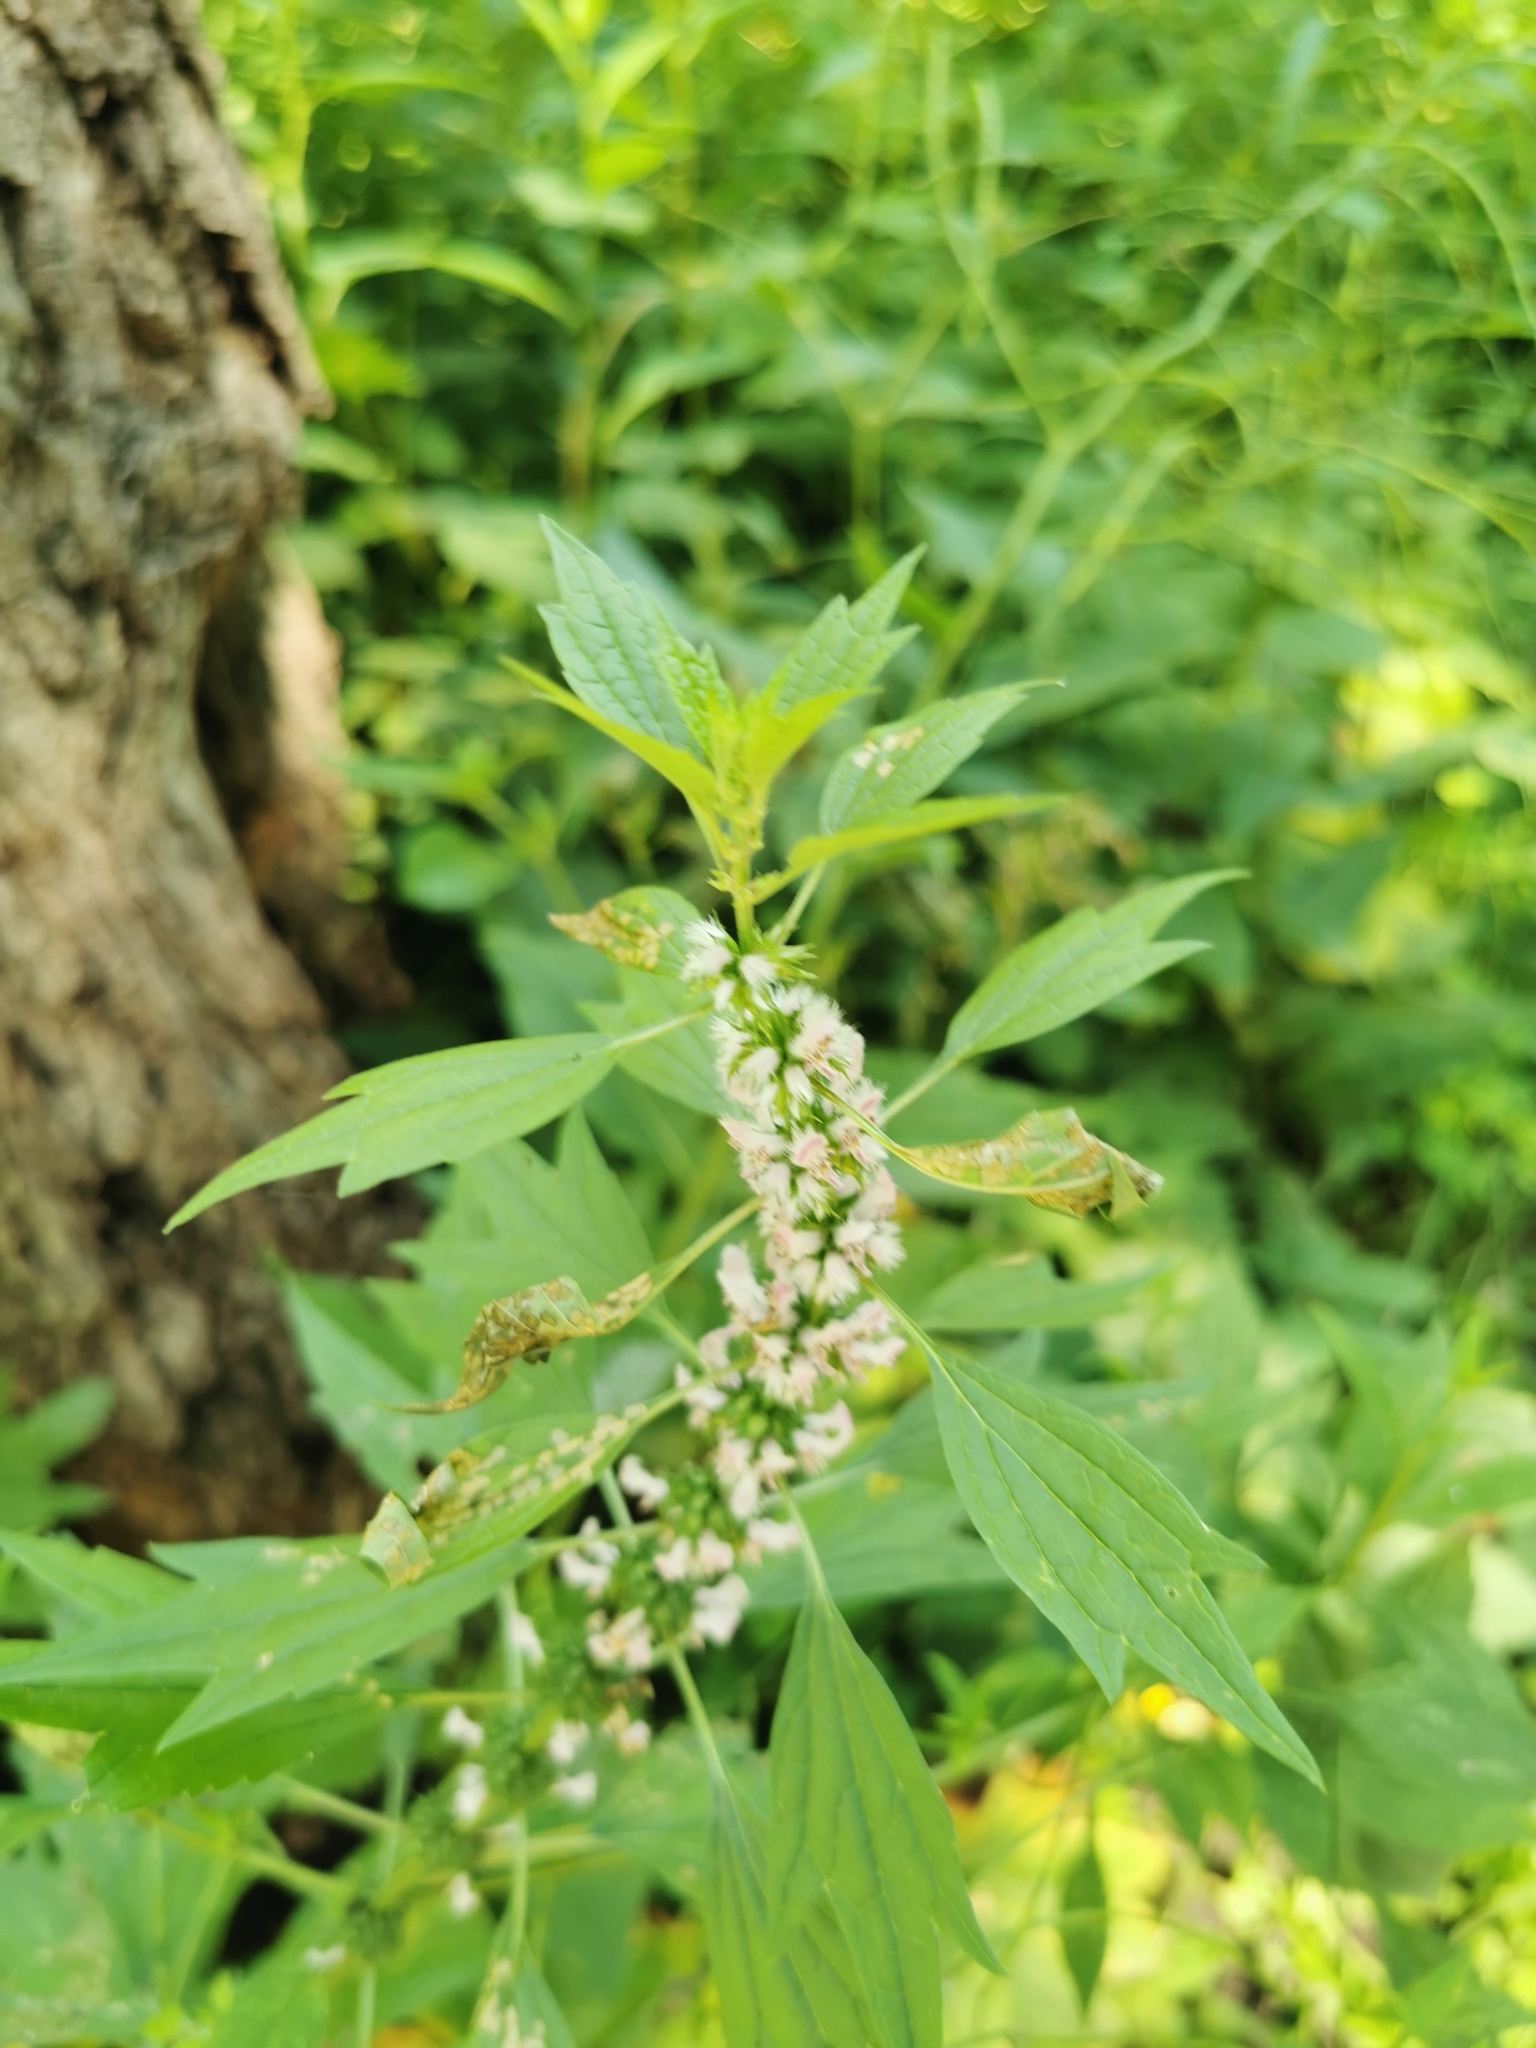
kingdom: Plantae
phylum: Tracheophyta
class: Magnoliopsida
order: Lamiales
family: Lamiaceae
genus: Leonurus
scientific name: Leonurus cardiaca
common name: Motherwort
